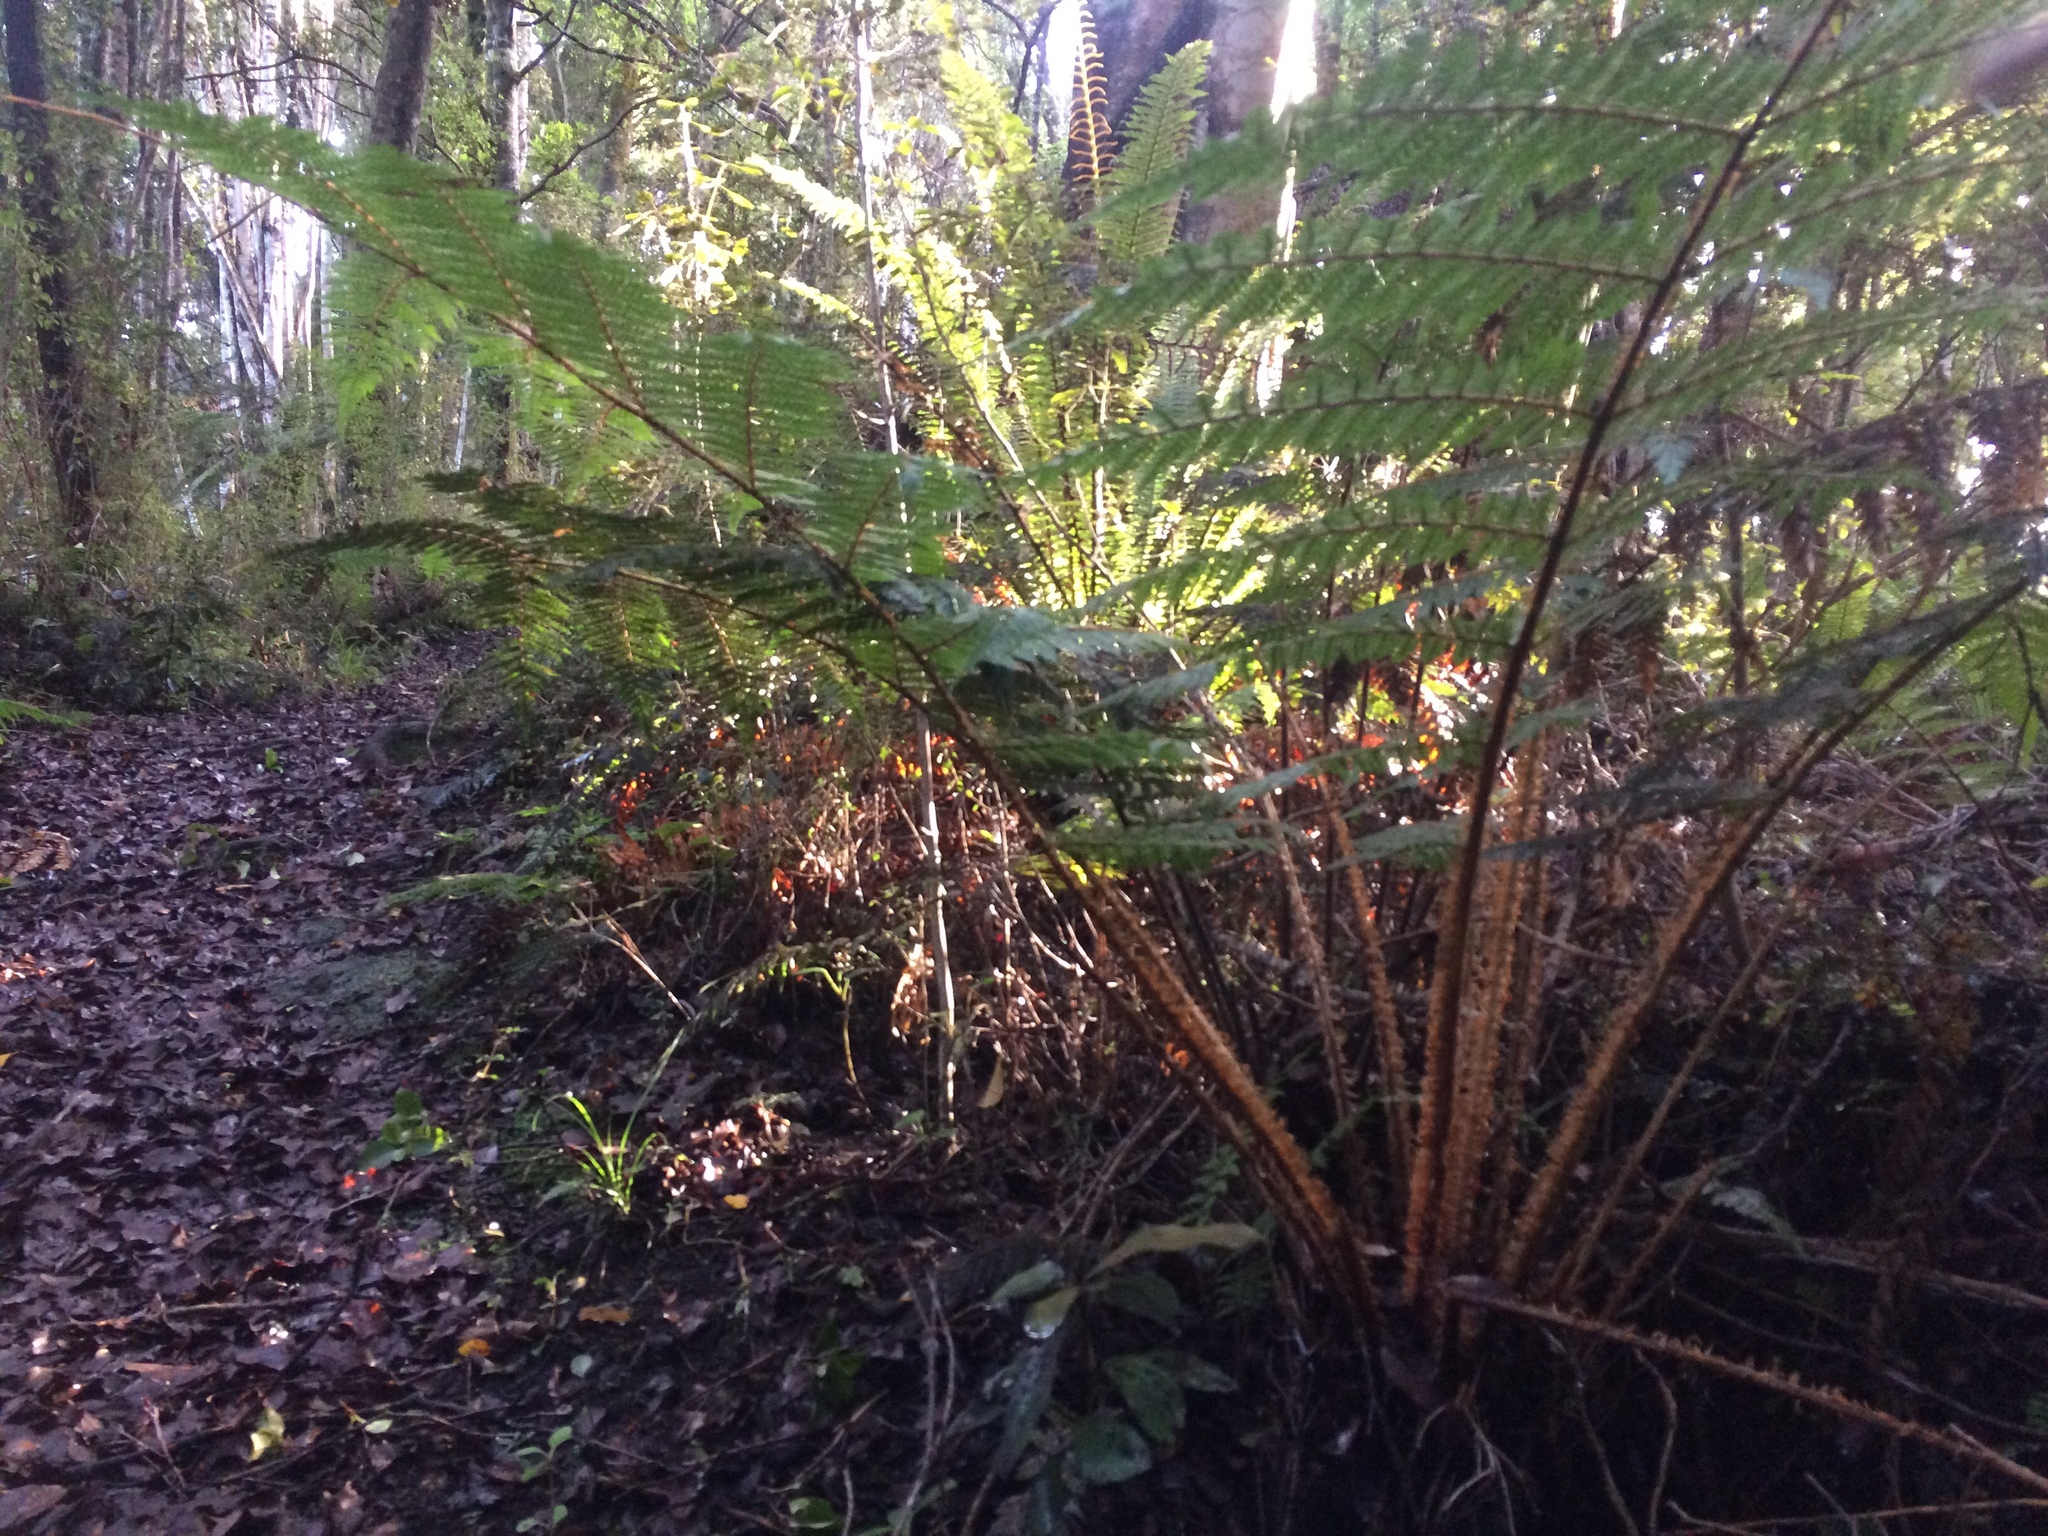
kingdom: Plantae
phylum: Tracheophyta
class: Polypodiopsida
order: Cyatheales
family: Cyatheaceae
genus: Alsophila
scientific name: Alsophila smithii
